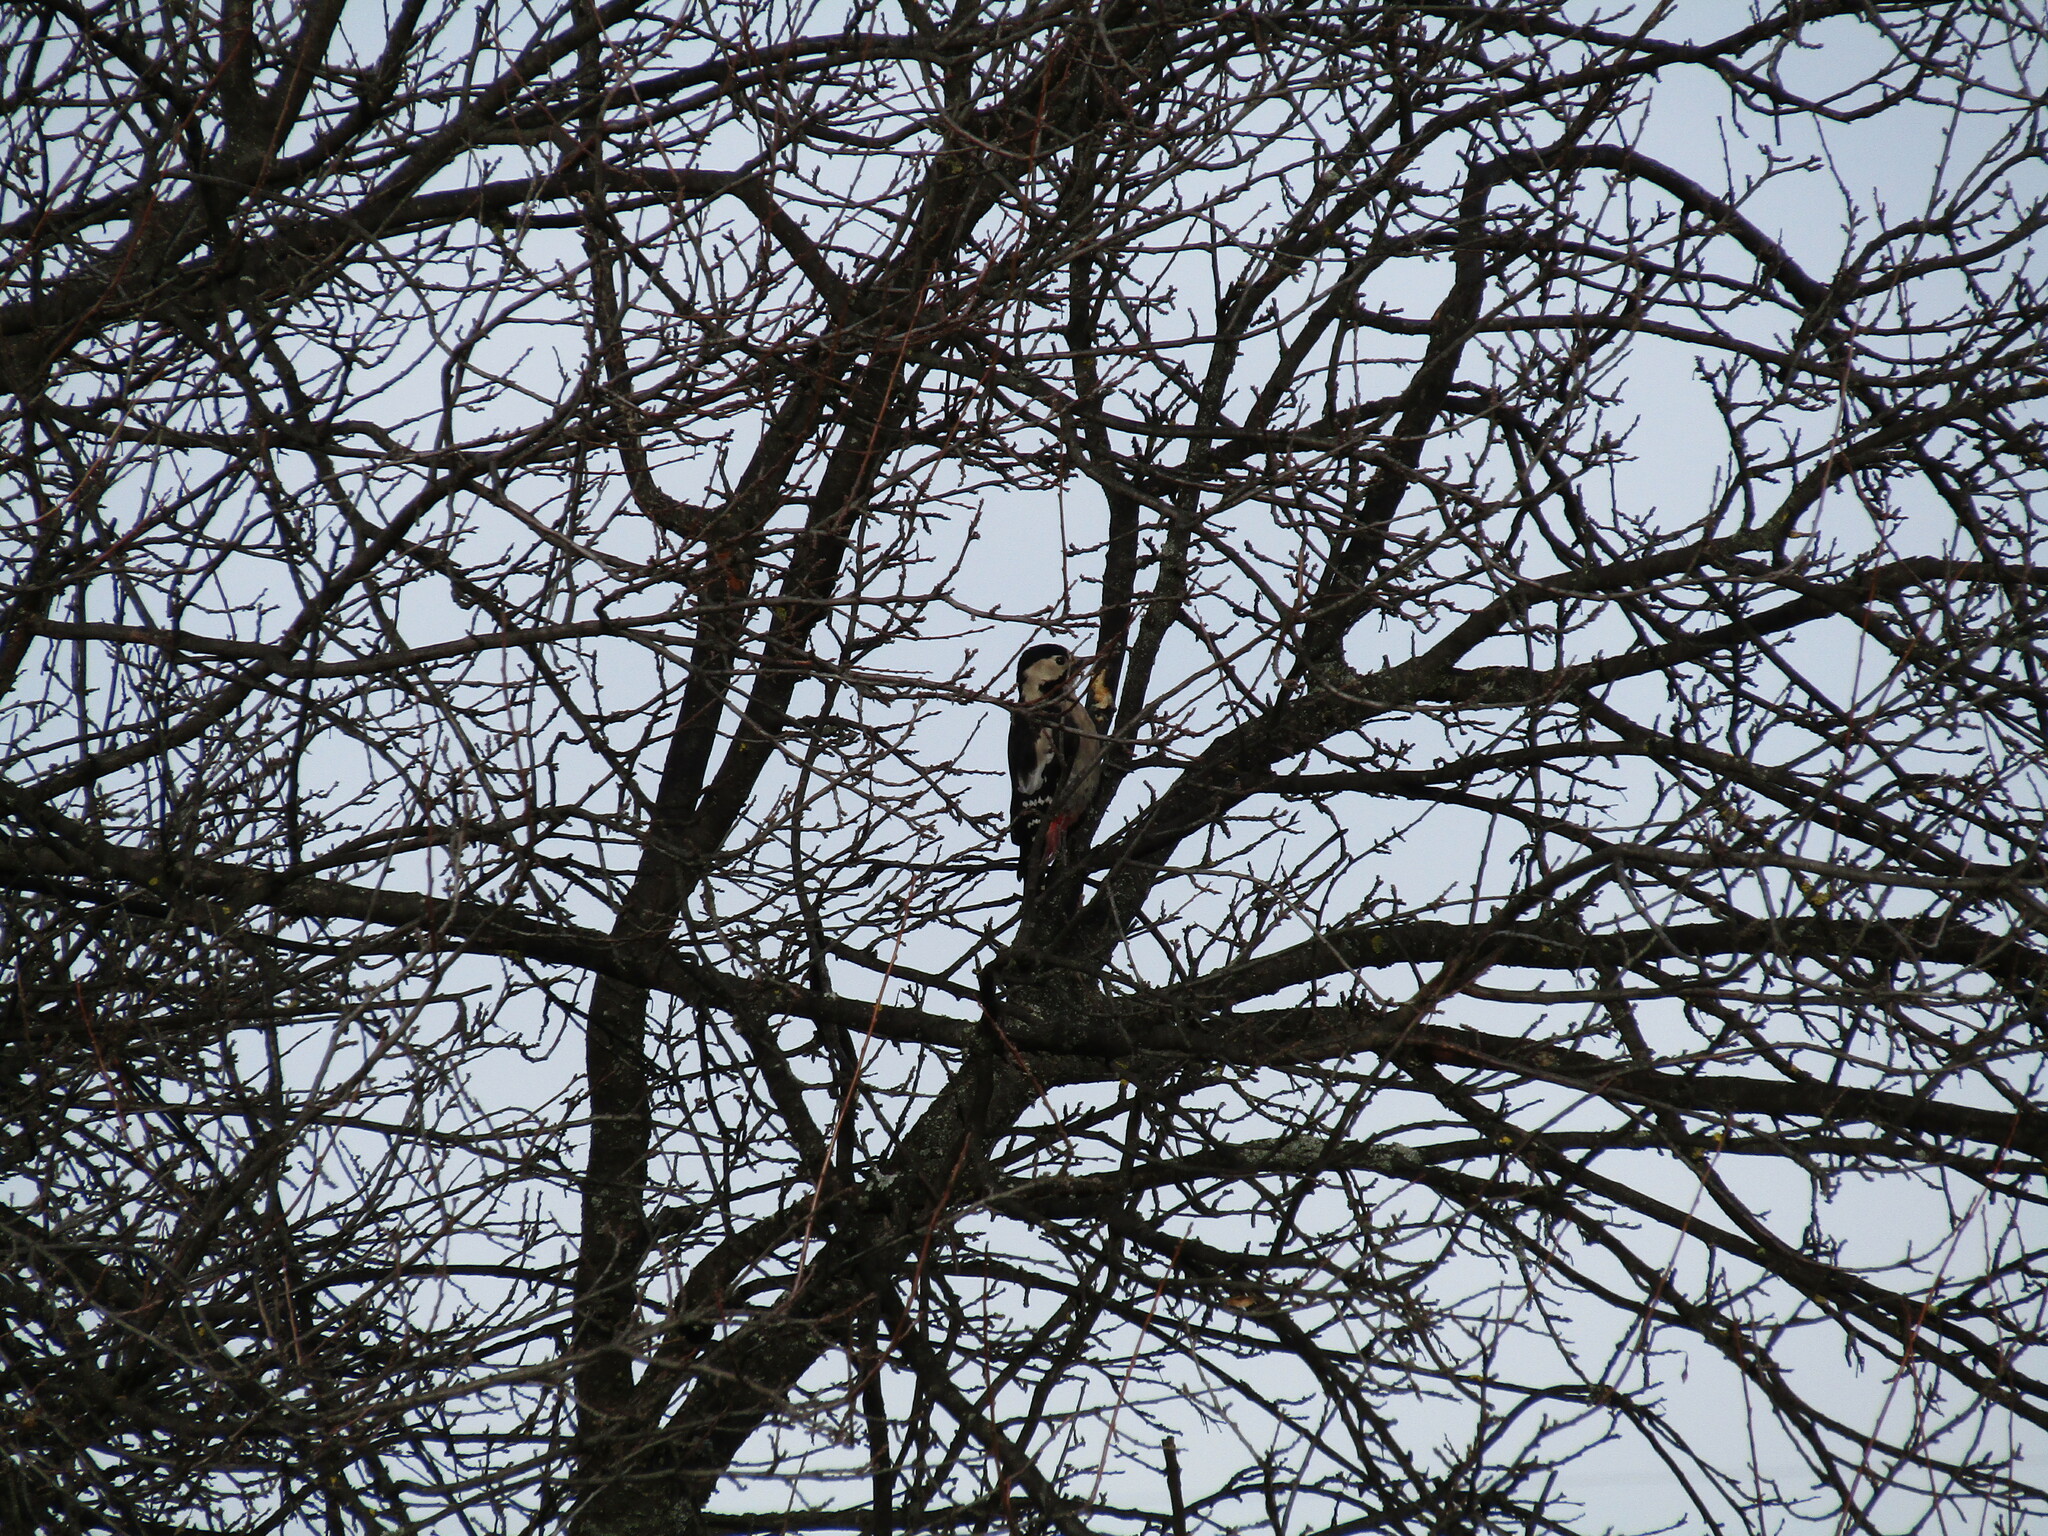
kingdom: Animalia
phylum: Chordata
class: Aves
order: Piciformes
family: Picidae
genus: Dendrocopos
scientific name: Dendrocopos syriacus
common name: Syrian woodpecker
